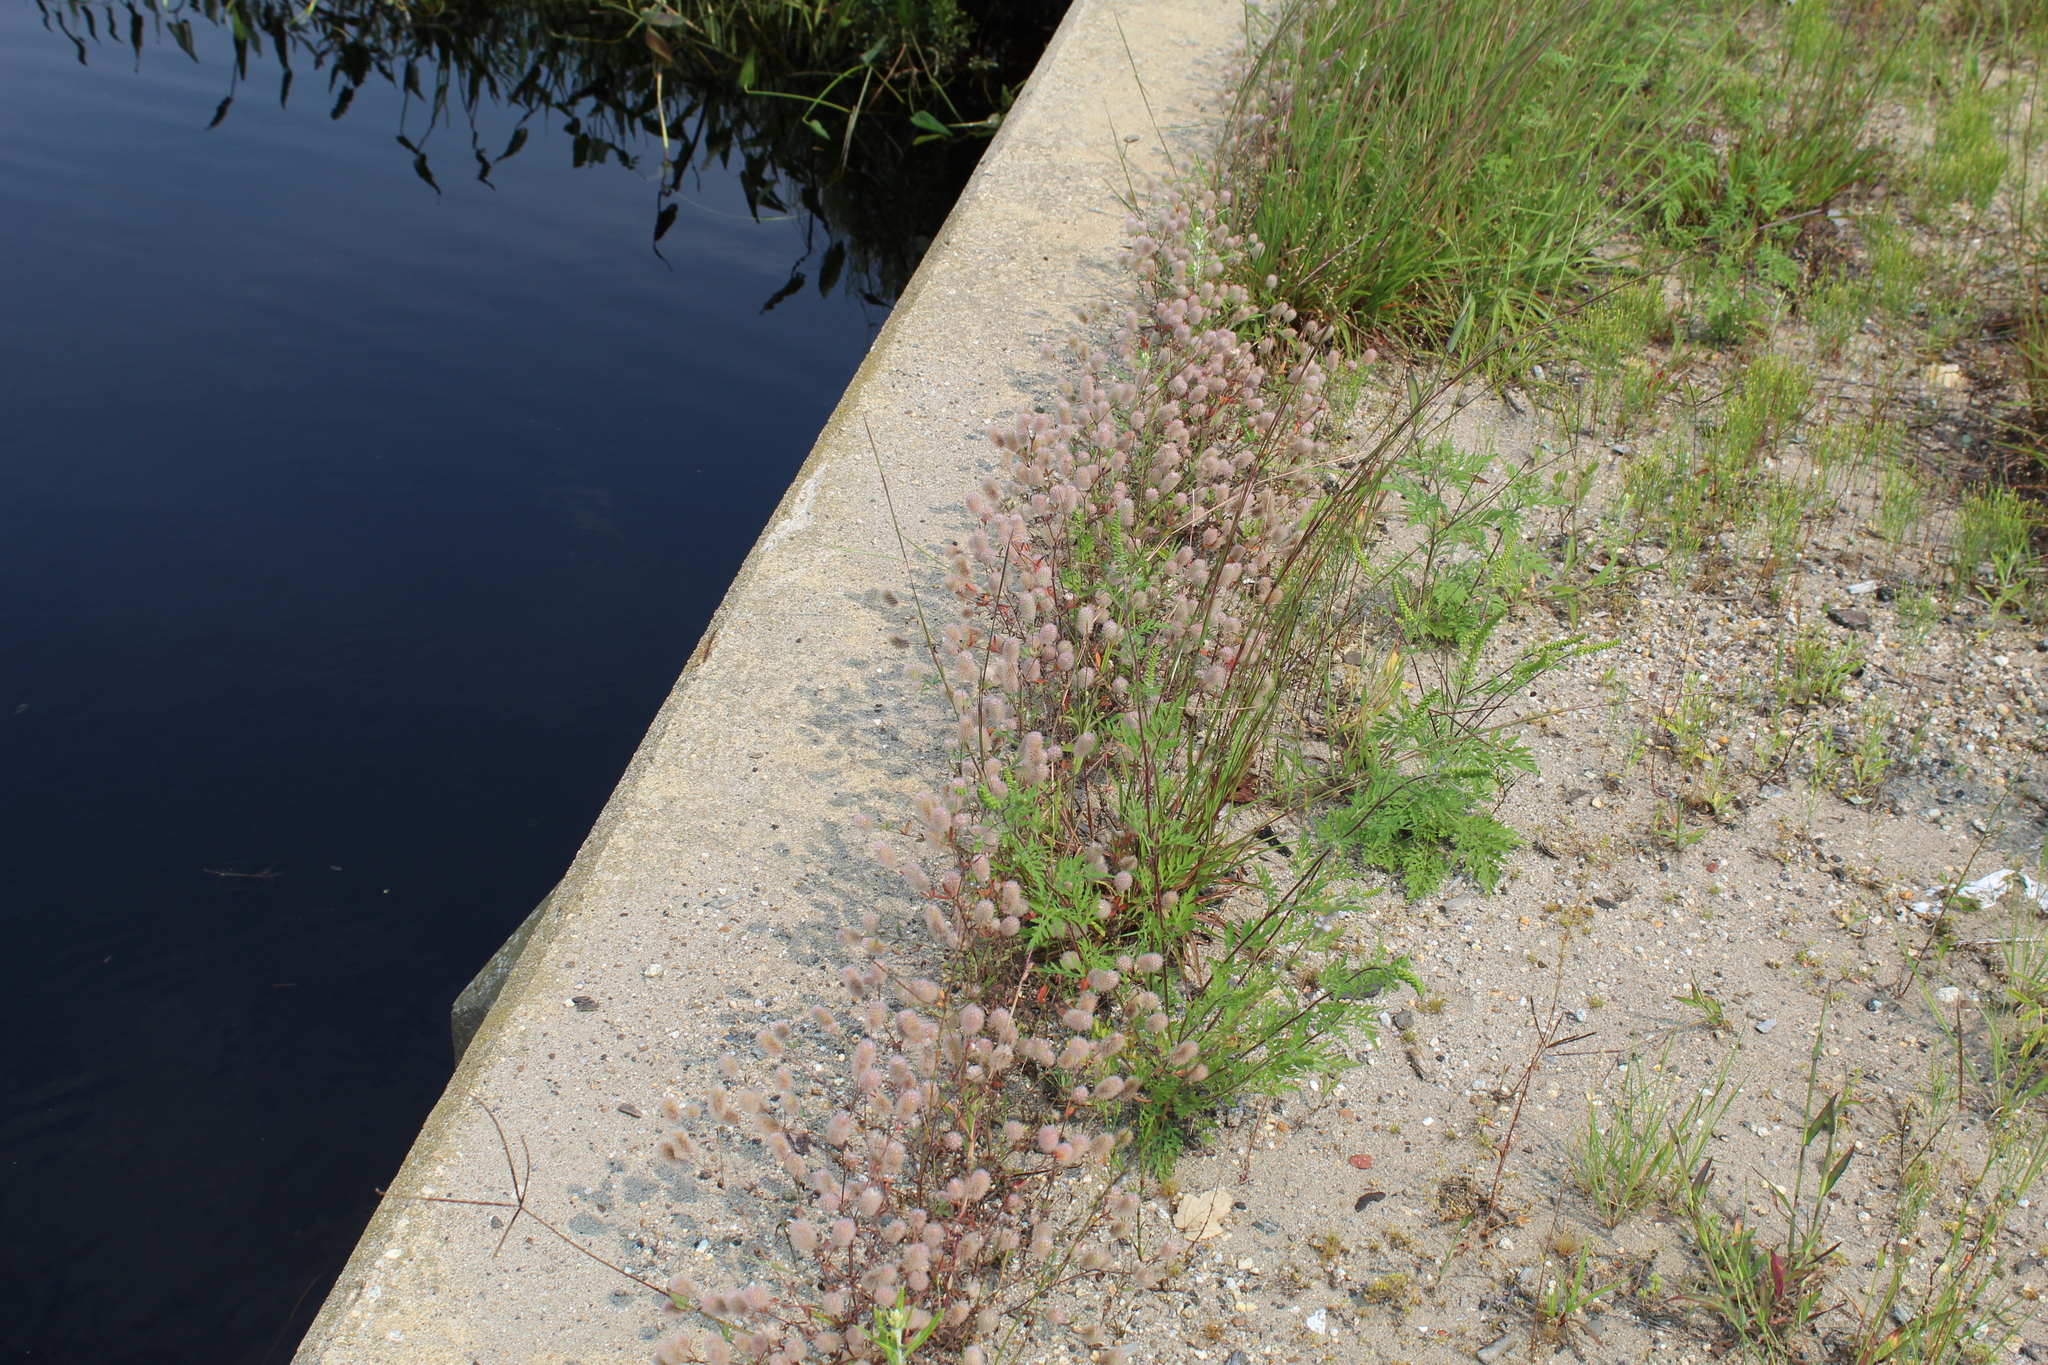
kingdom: Plantae
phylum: Tracheophyta
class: Magnoliopsida
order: Fabales
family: Fabaceae
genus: Trifolium
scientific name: Trifolium arvense
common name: Hare's-foot clover
